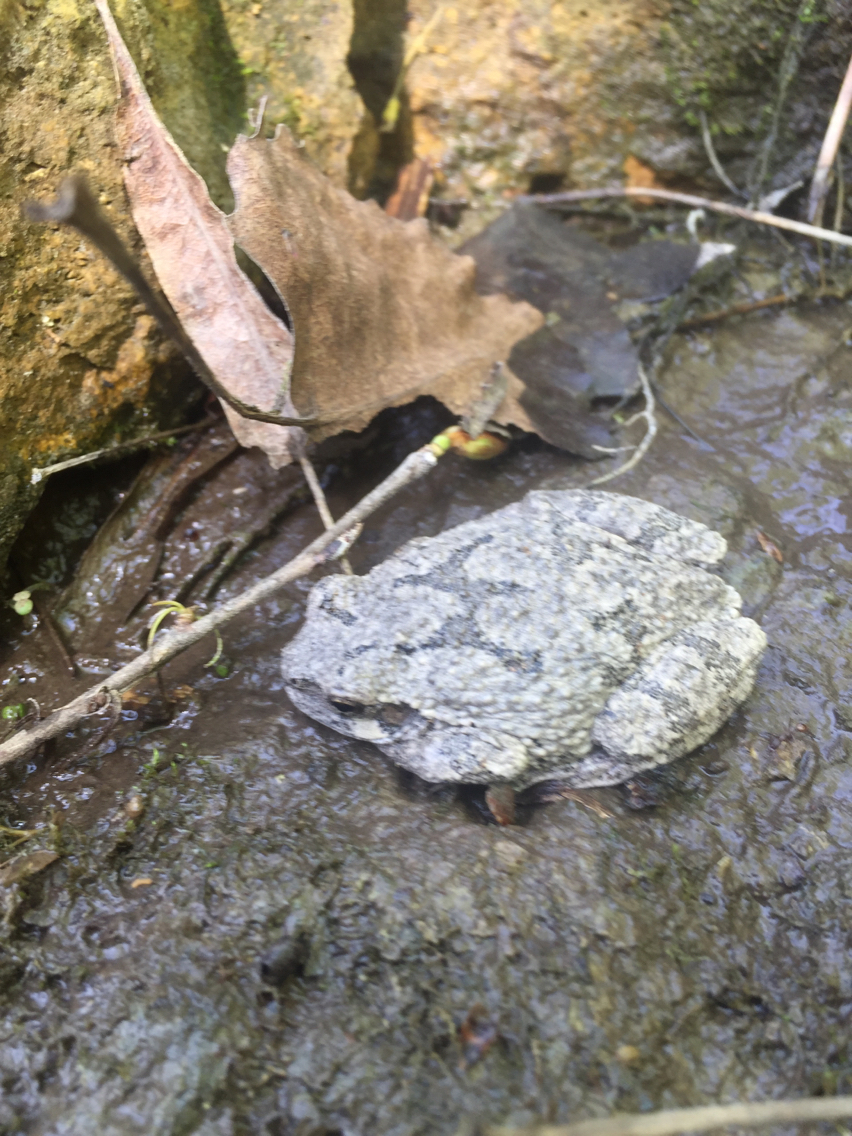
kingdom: Animalia
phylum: Chordata
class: Amphibia
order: Anura
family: Hylidae
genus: Dryophytes
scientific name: Dryophytes versicolor
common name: Gray treefrog
